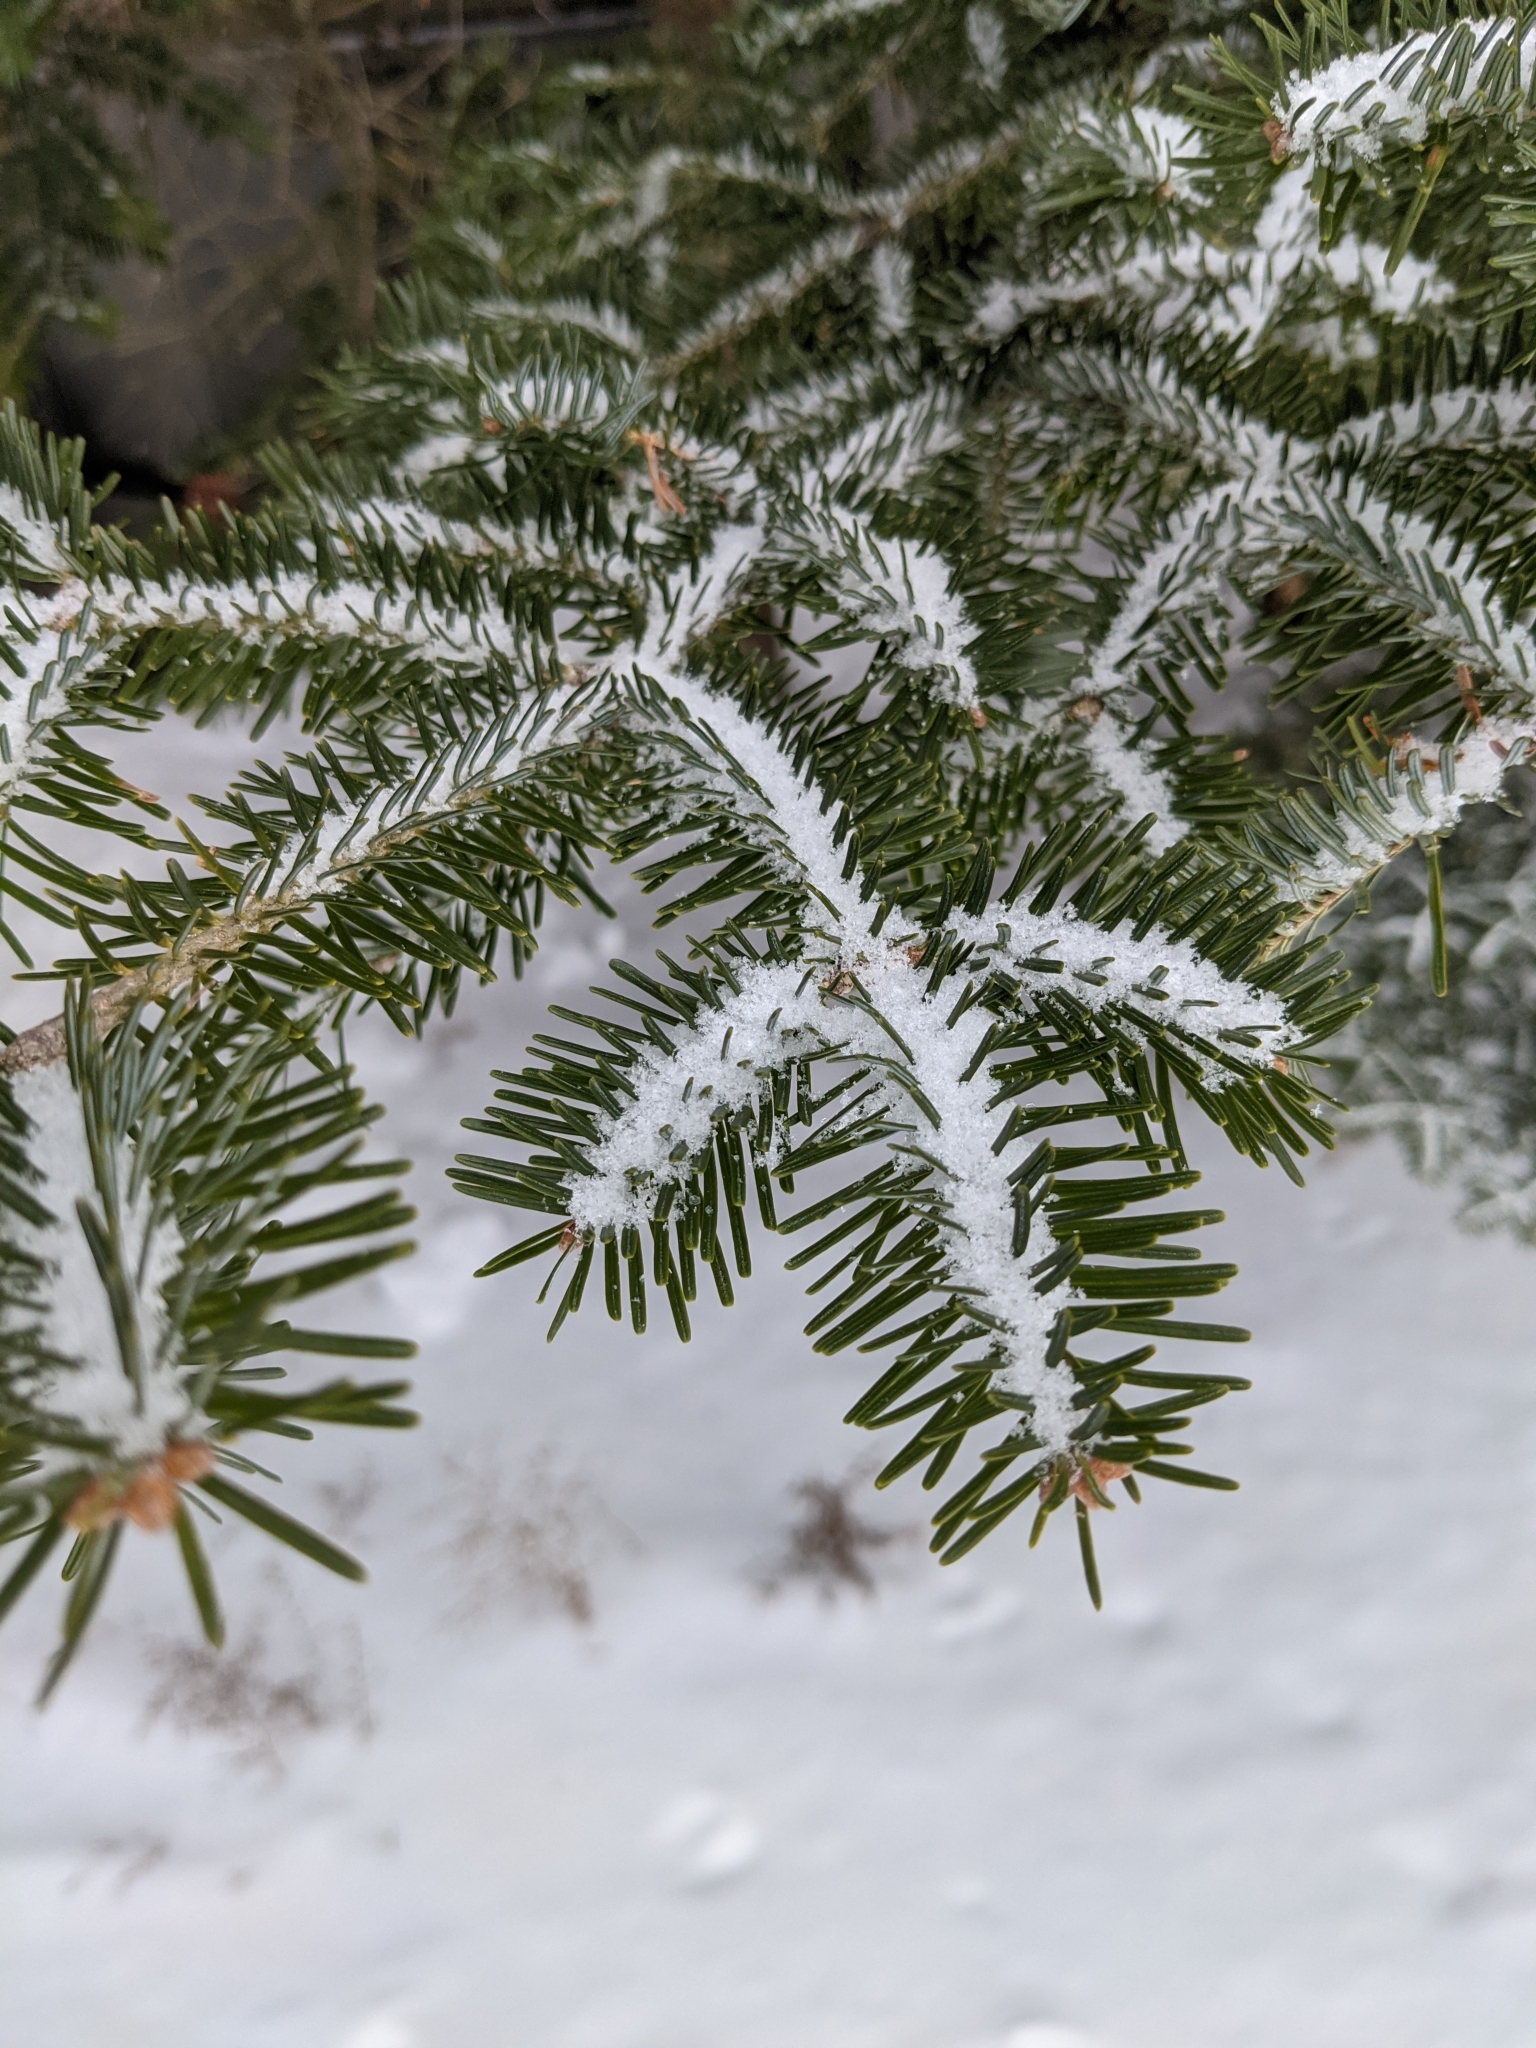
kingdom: Plantae
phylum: Tracheophyta
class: Pinopsida
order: Pinales
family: Pinaceae
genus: Abies
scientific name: Abies balsamea
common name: Balsam fir
